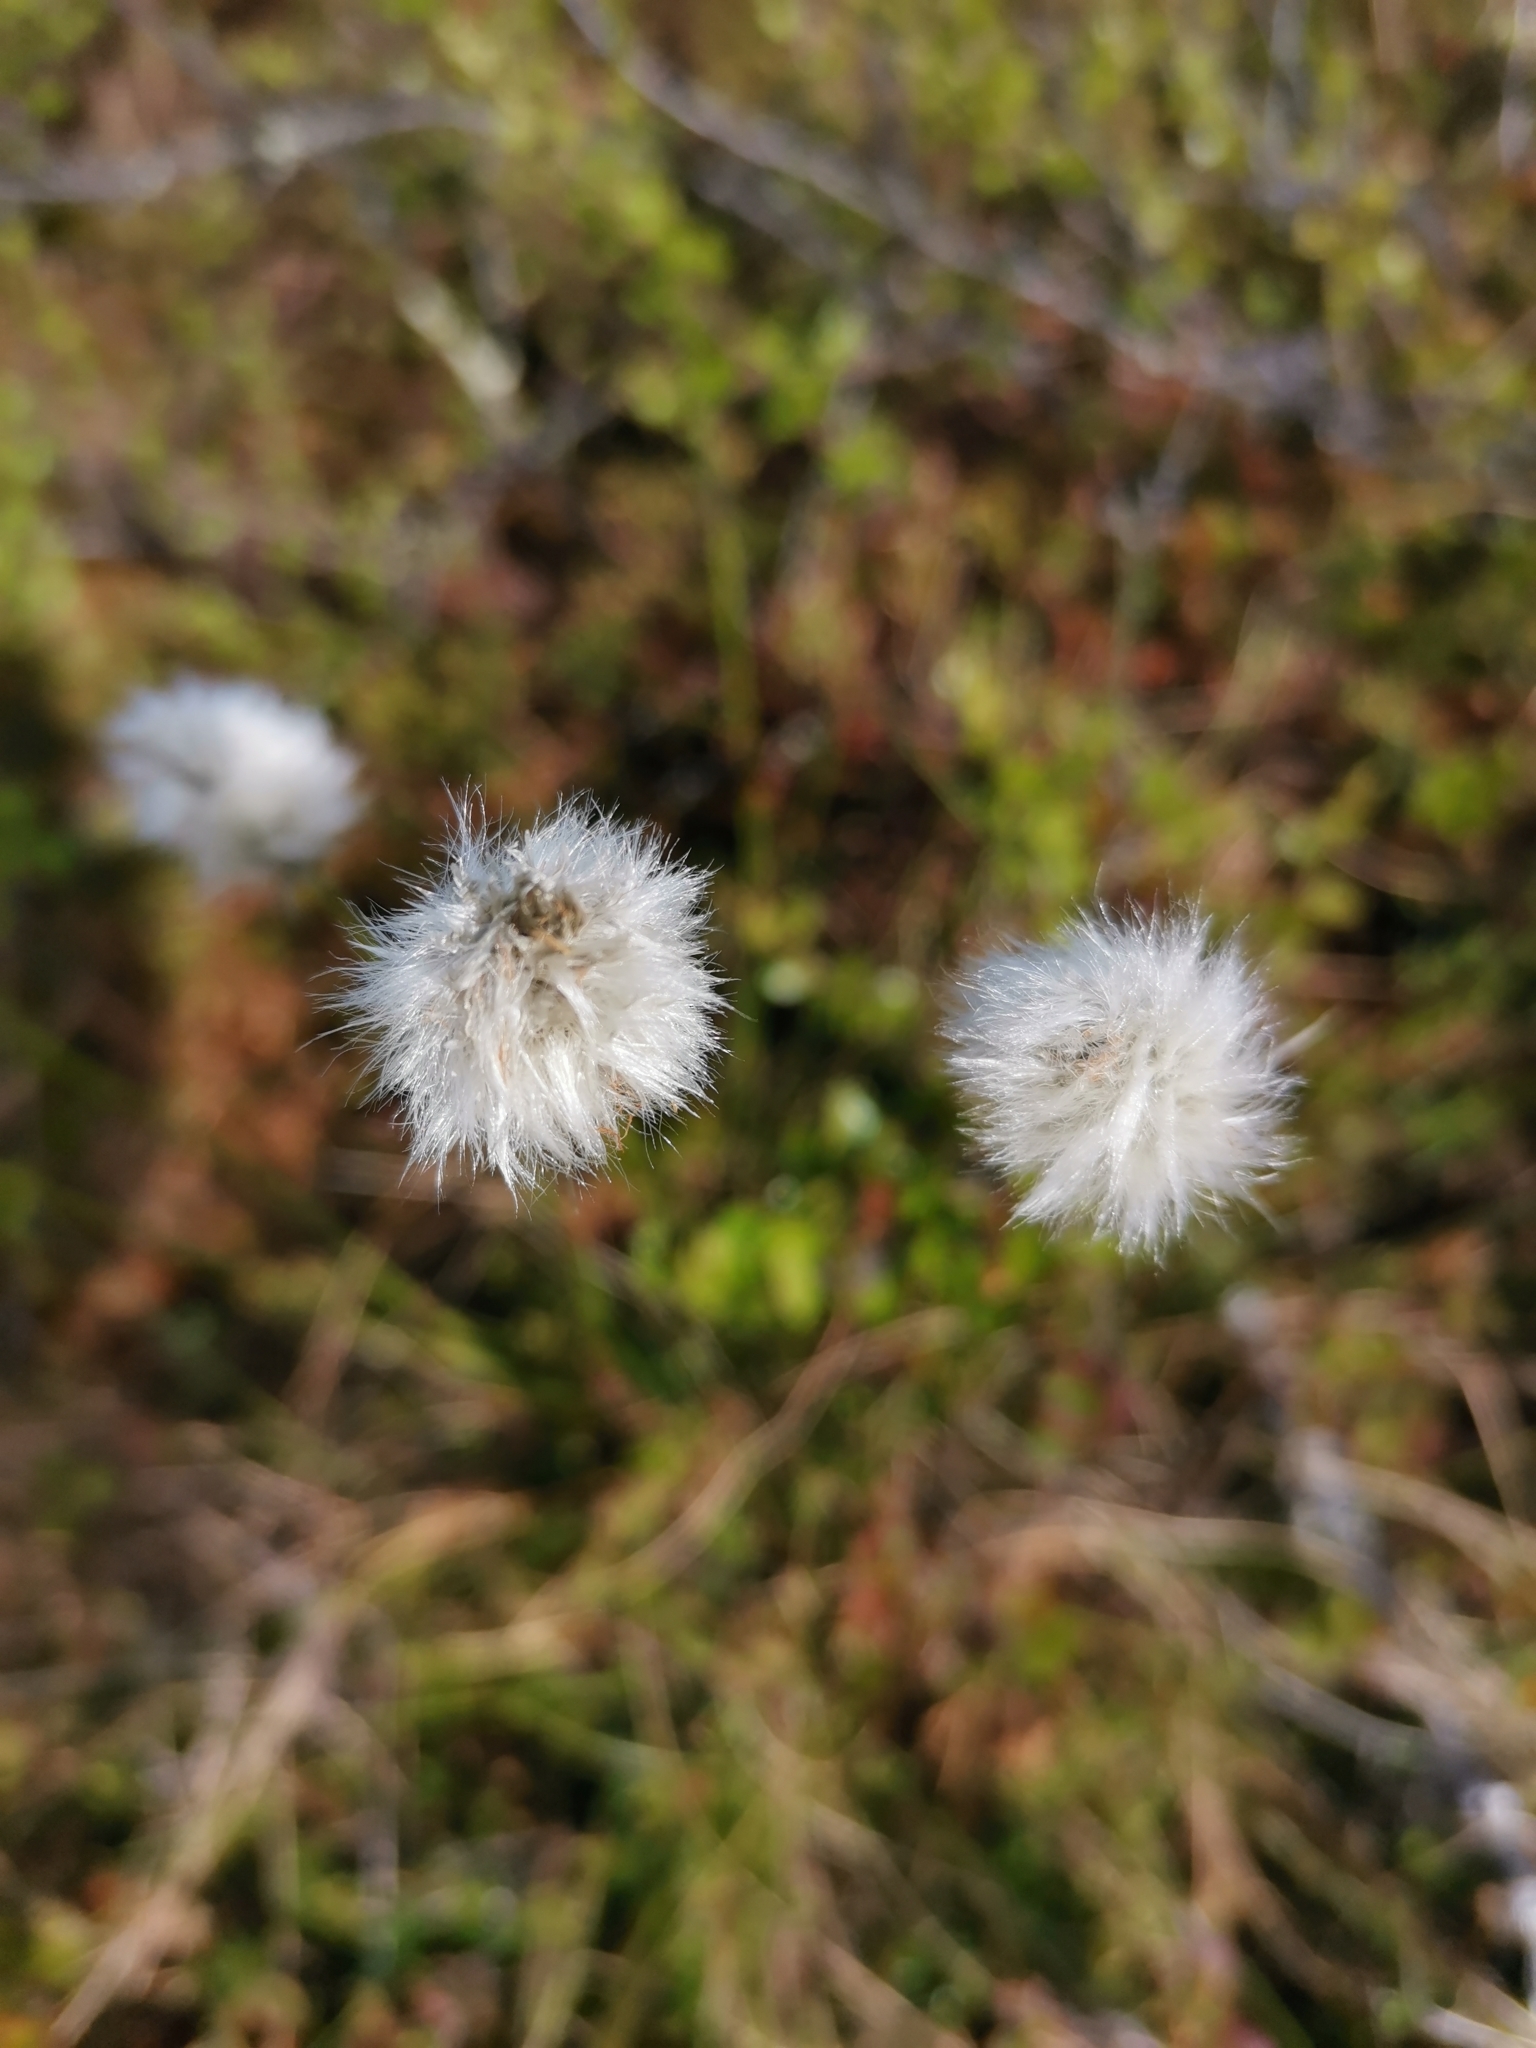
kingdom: Plantae
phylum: Tracheophyta
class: Liliopsida
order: Poales
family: Cyperaceae
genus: Eriophorum
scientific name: Eriophorum vaginatum
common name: Hare's-tail cottongrass
